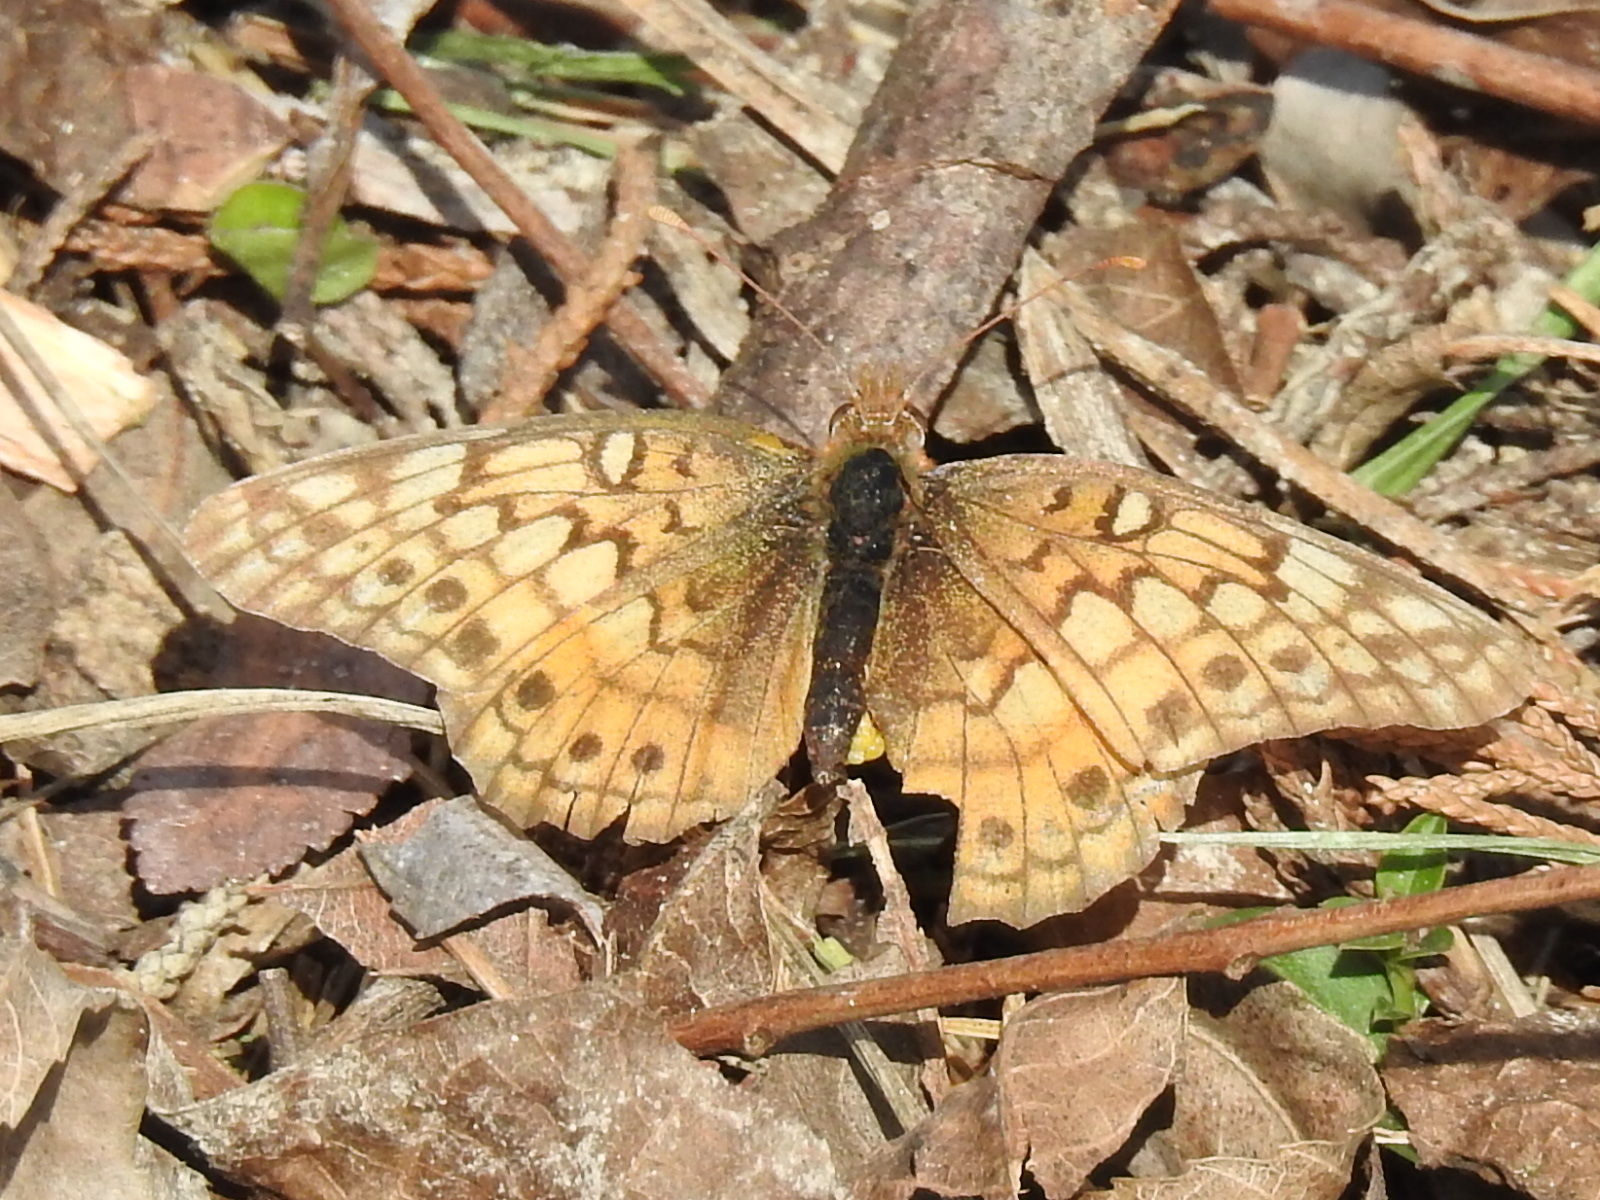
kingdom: Animalia
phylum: Arthropoda
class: Insecta
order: Lepidoptera
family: Nymphalidae
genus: Euptoieta
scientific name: Euptoieta claudia
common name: Variegated fritillary
